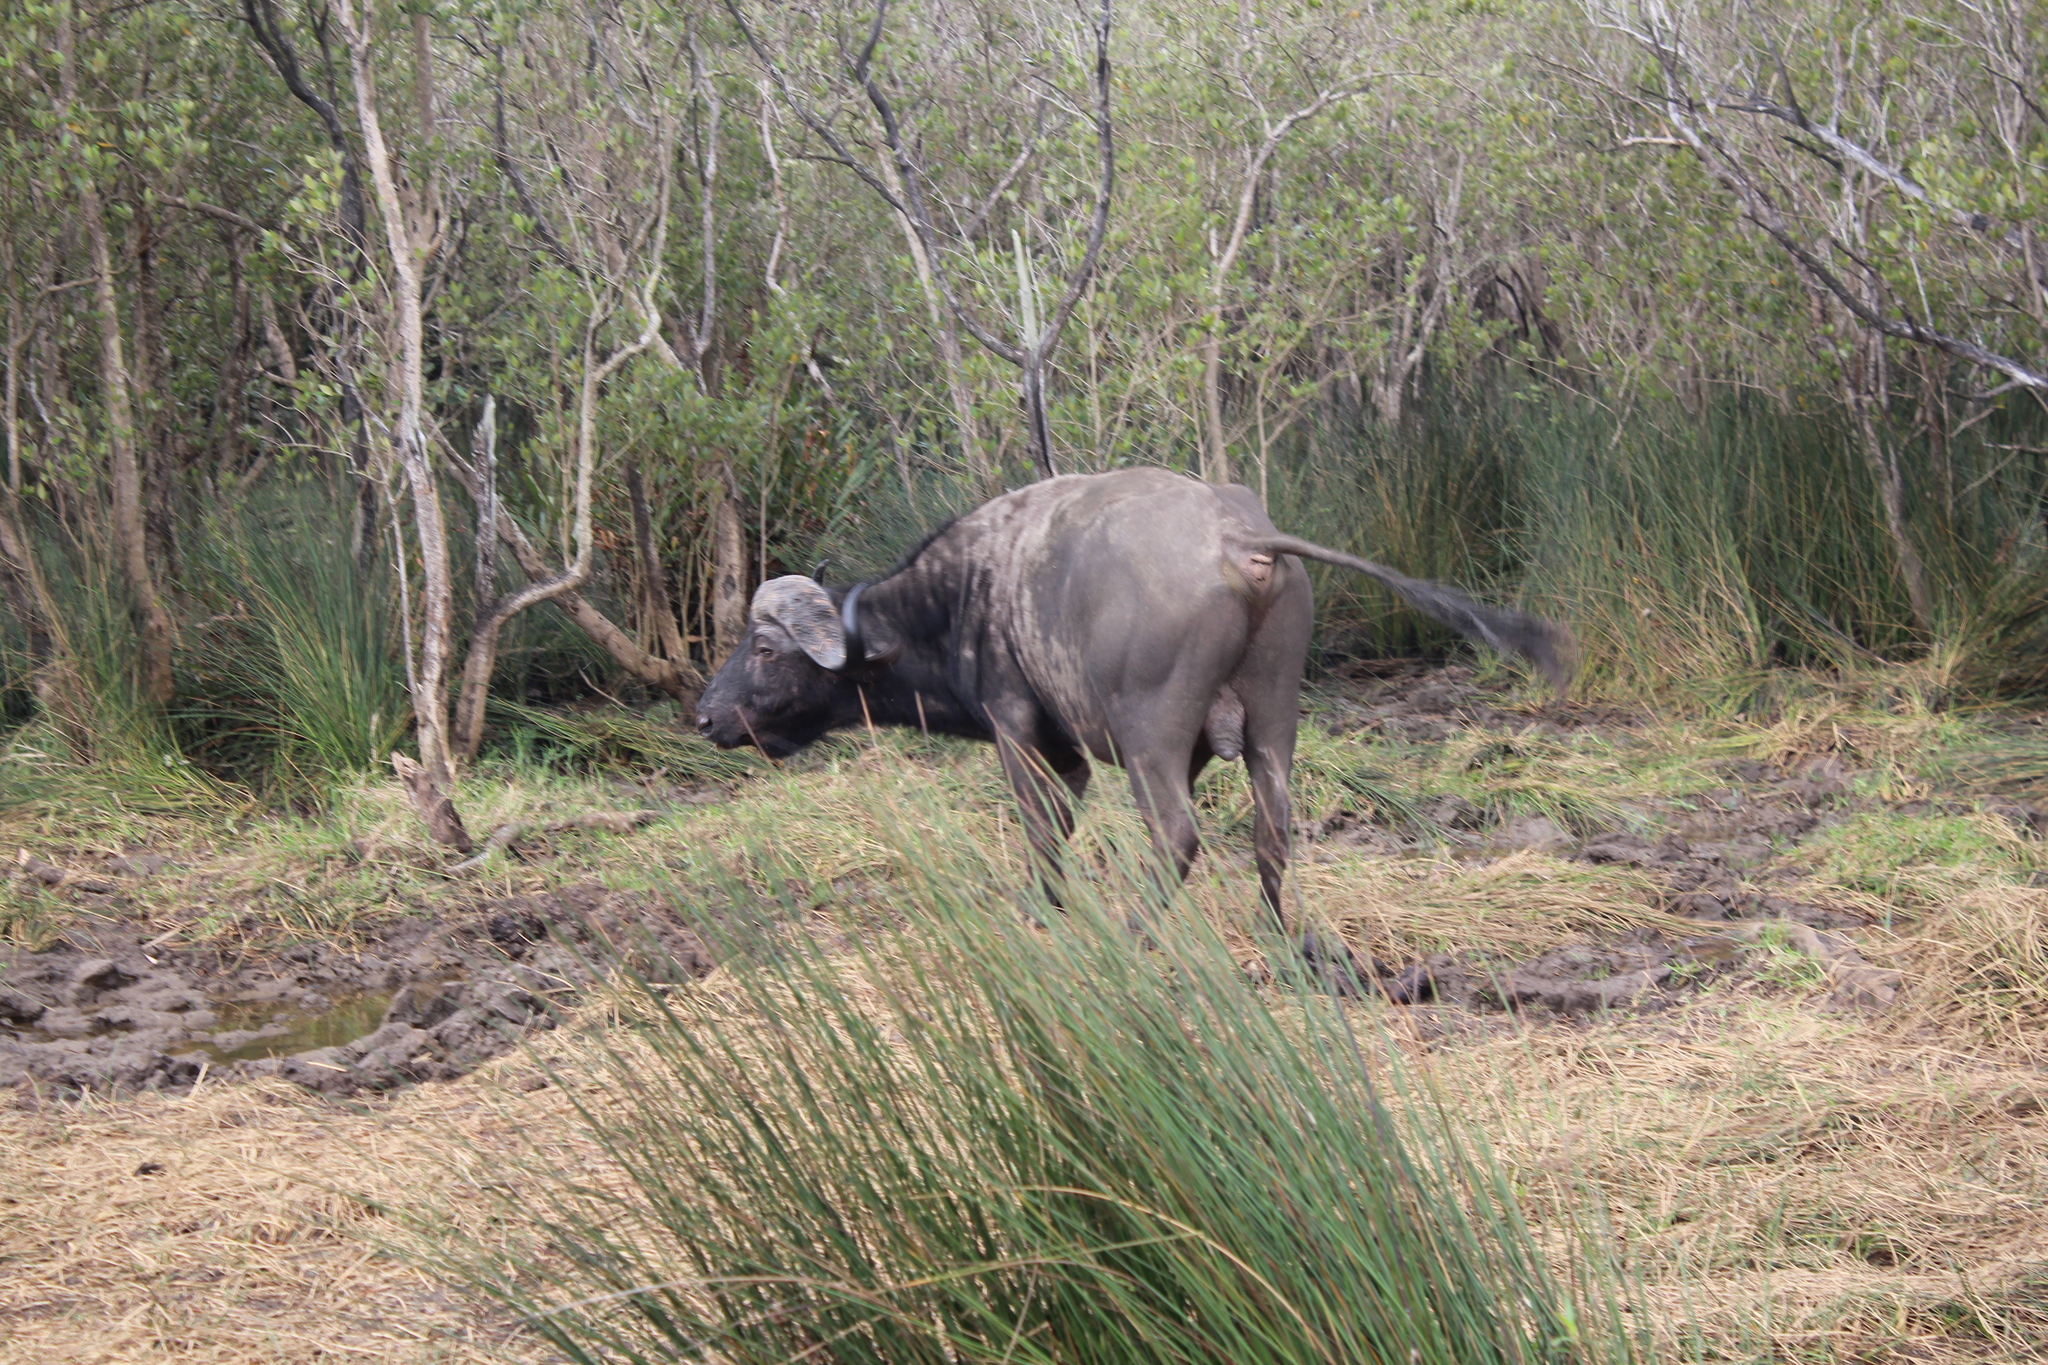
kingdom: Animalia
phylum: Chordata
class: Mammalia
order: Artiodactyla
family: Bovidae
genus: Syncerus
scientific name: Syncerus caffer
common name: African buffalo
